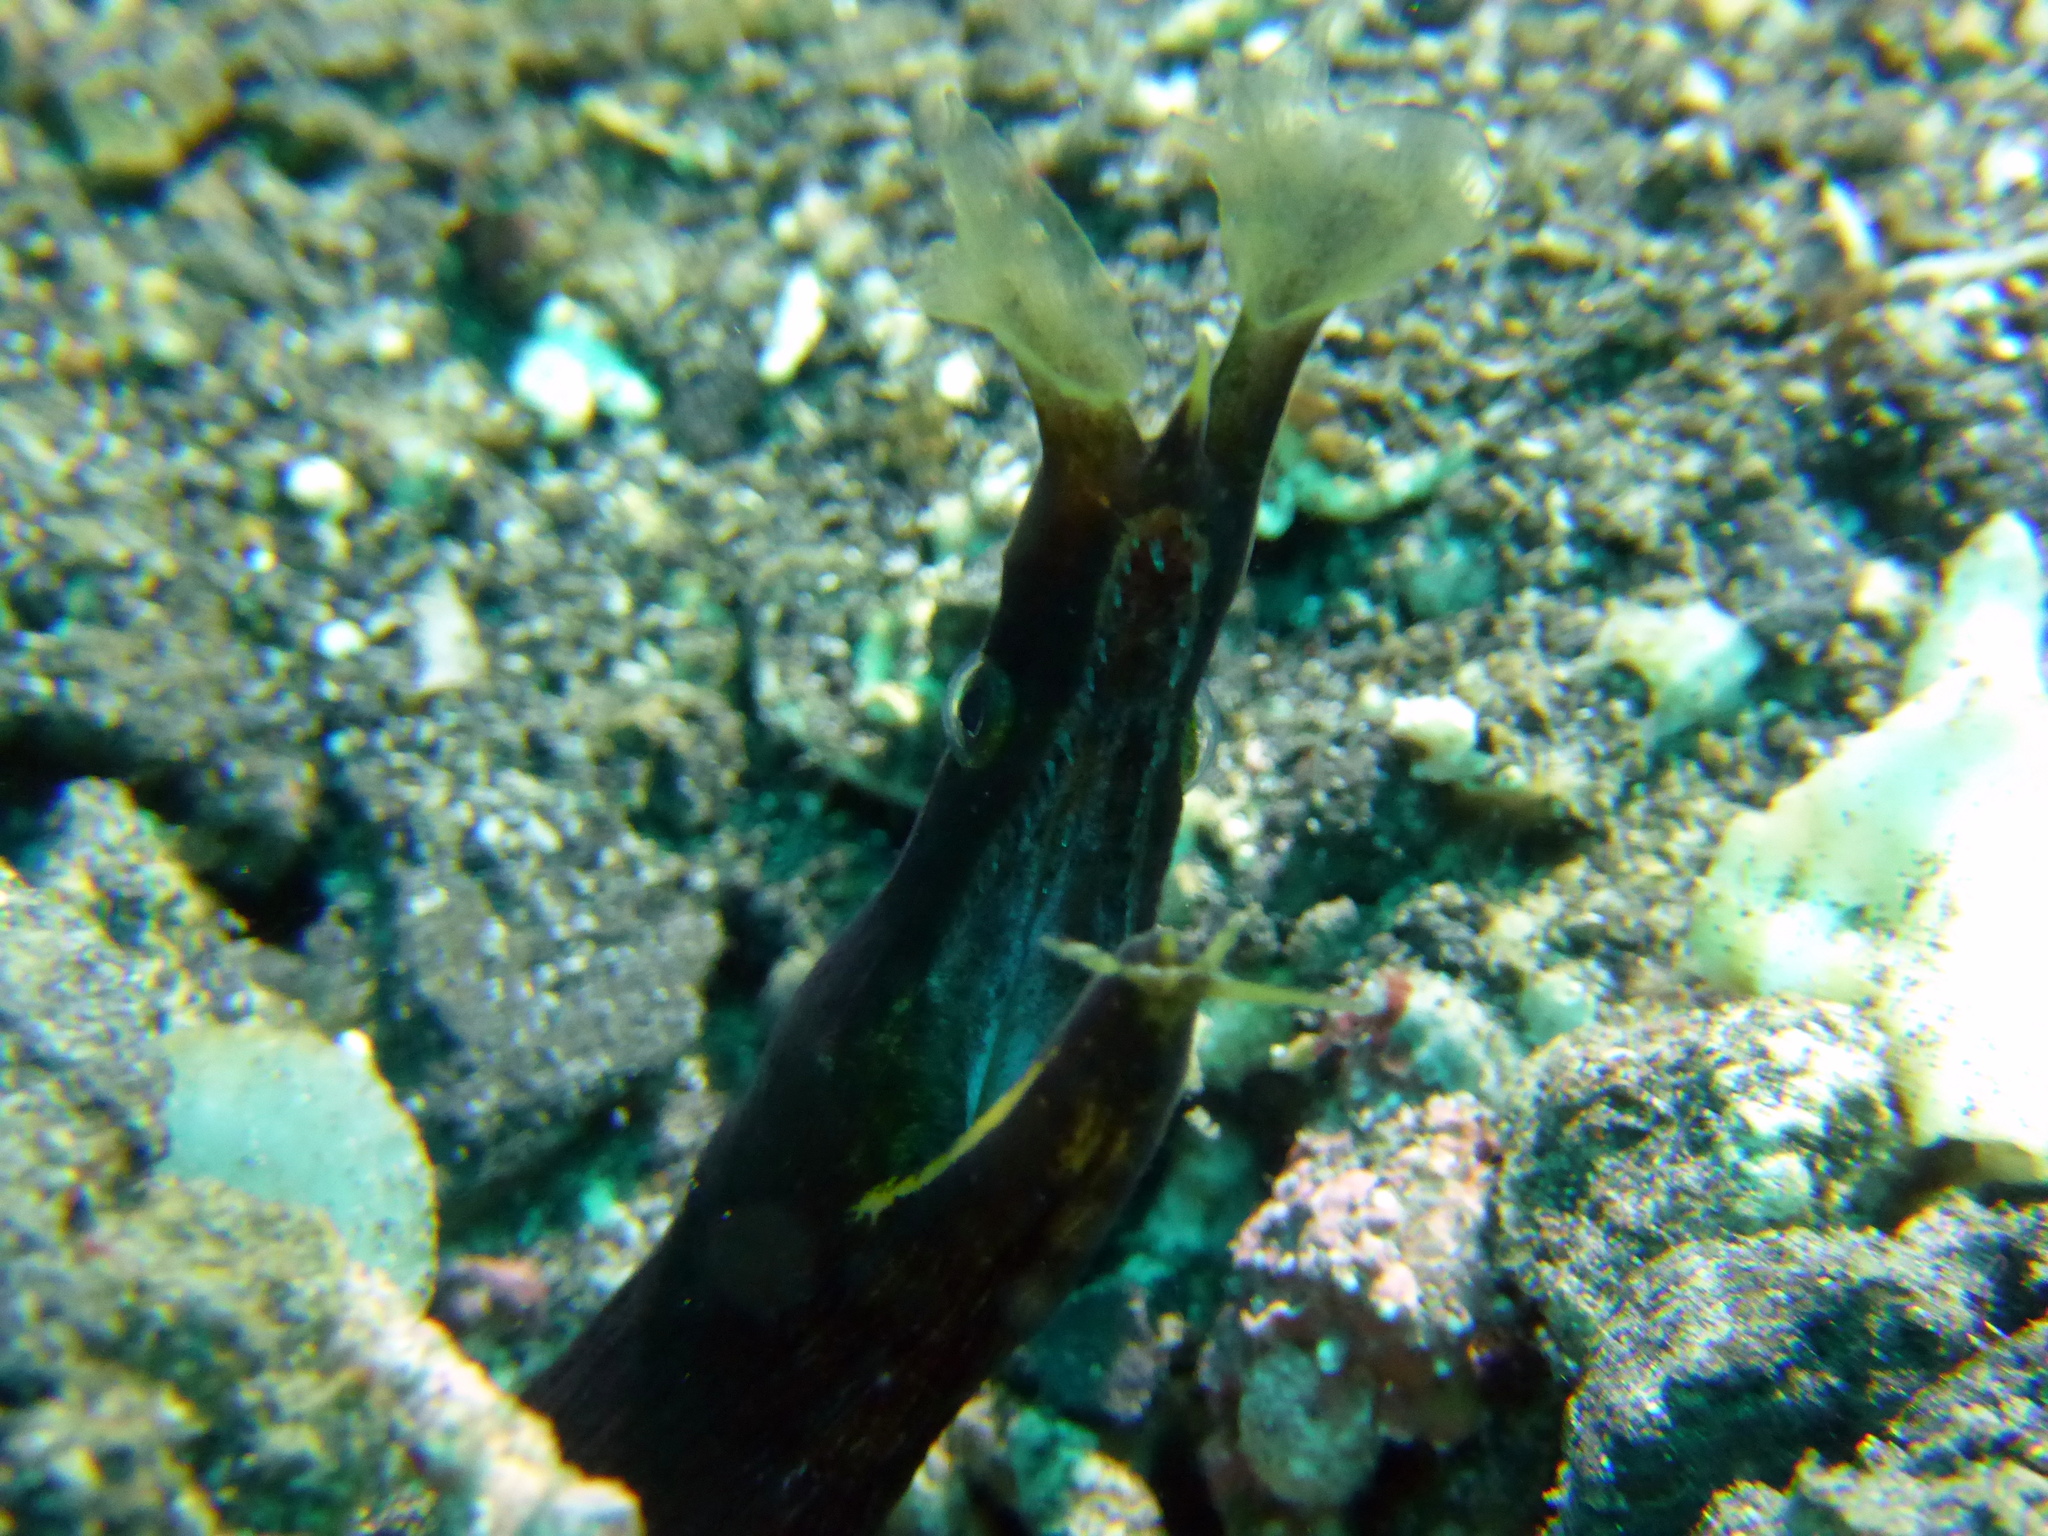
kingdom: Animalia
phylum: Chordata
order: Anguilliformes
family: Muraenidae
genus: Rhinomuraena
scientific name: Rhinomuraena quaesita
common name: Ribbon eel
